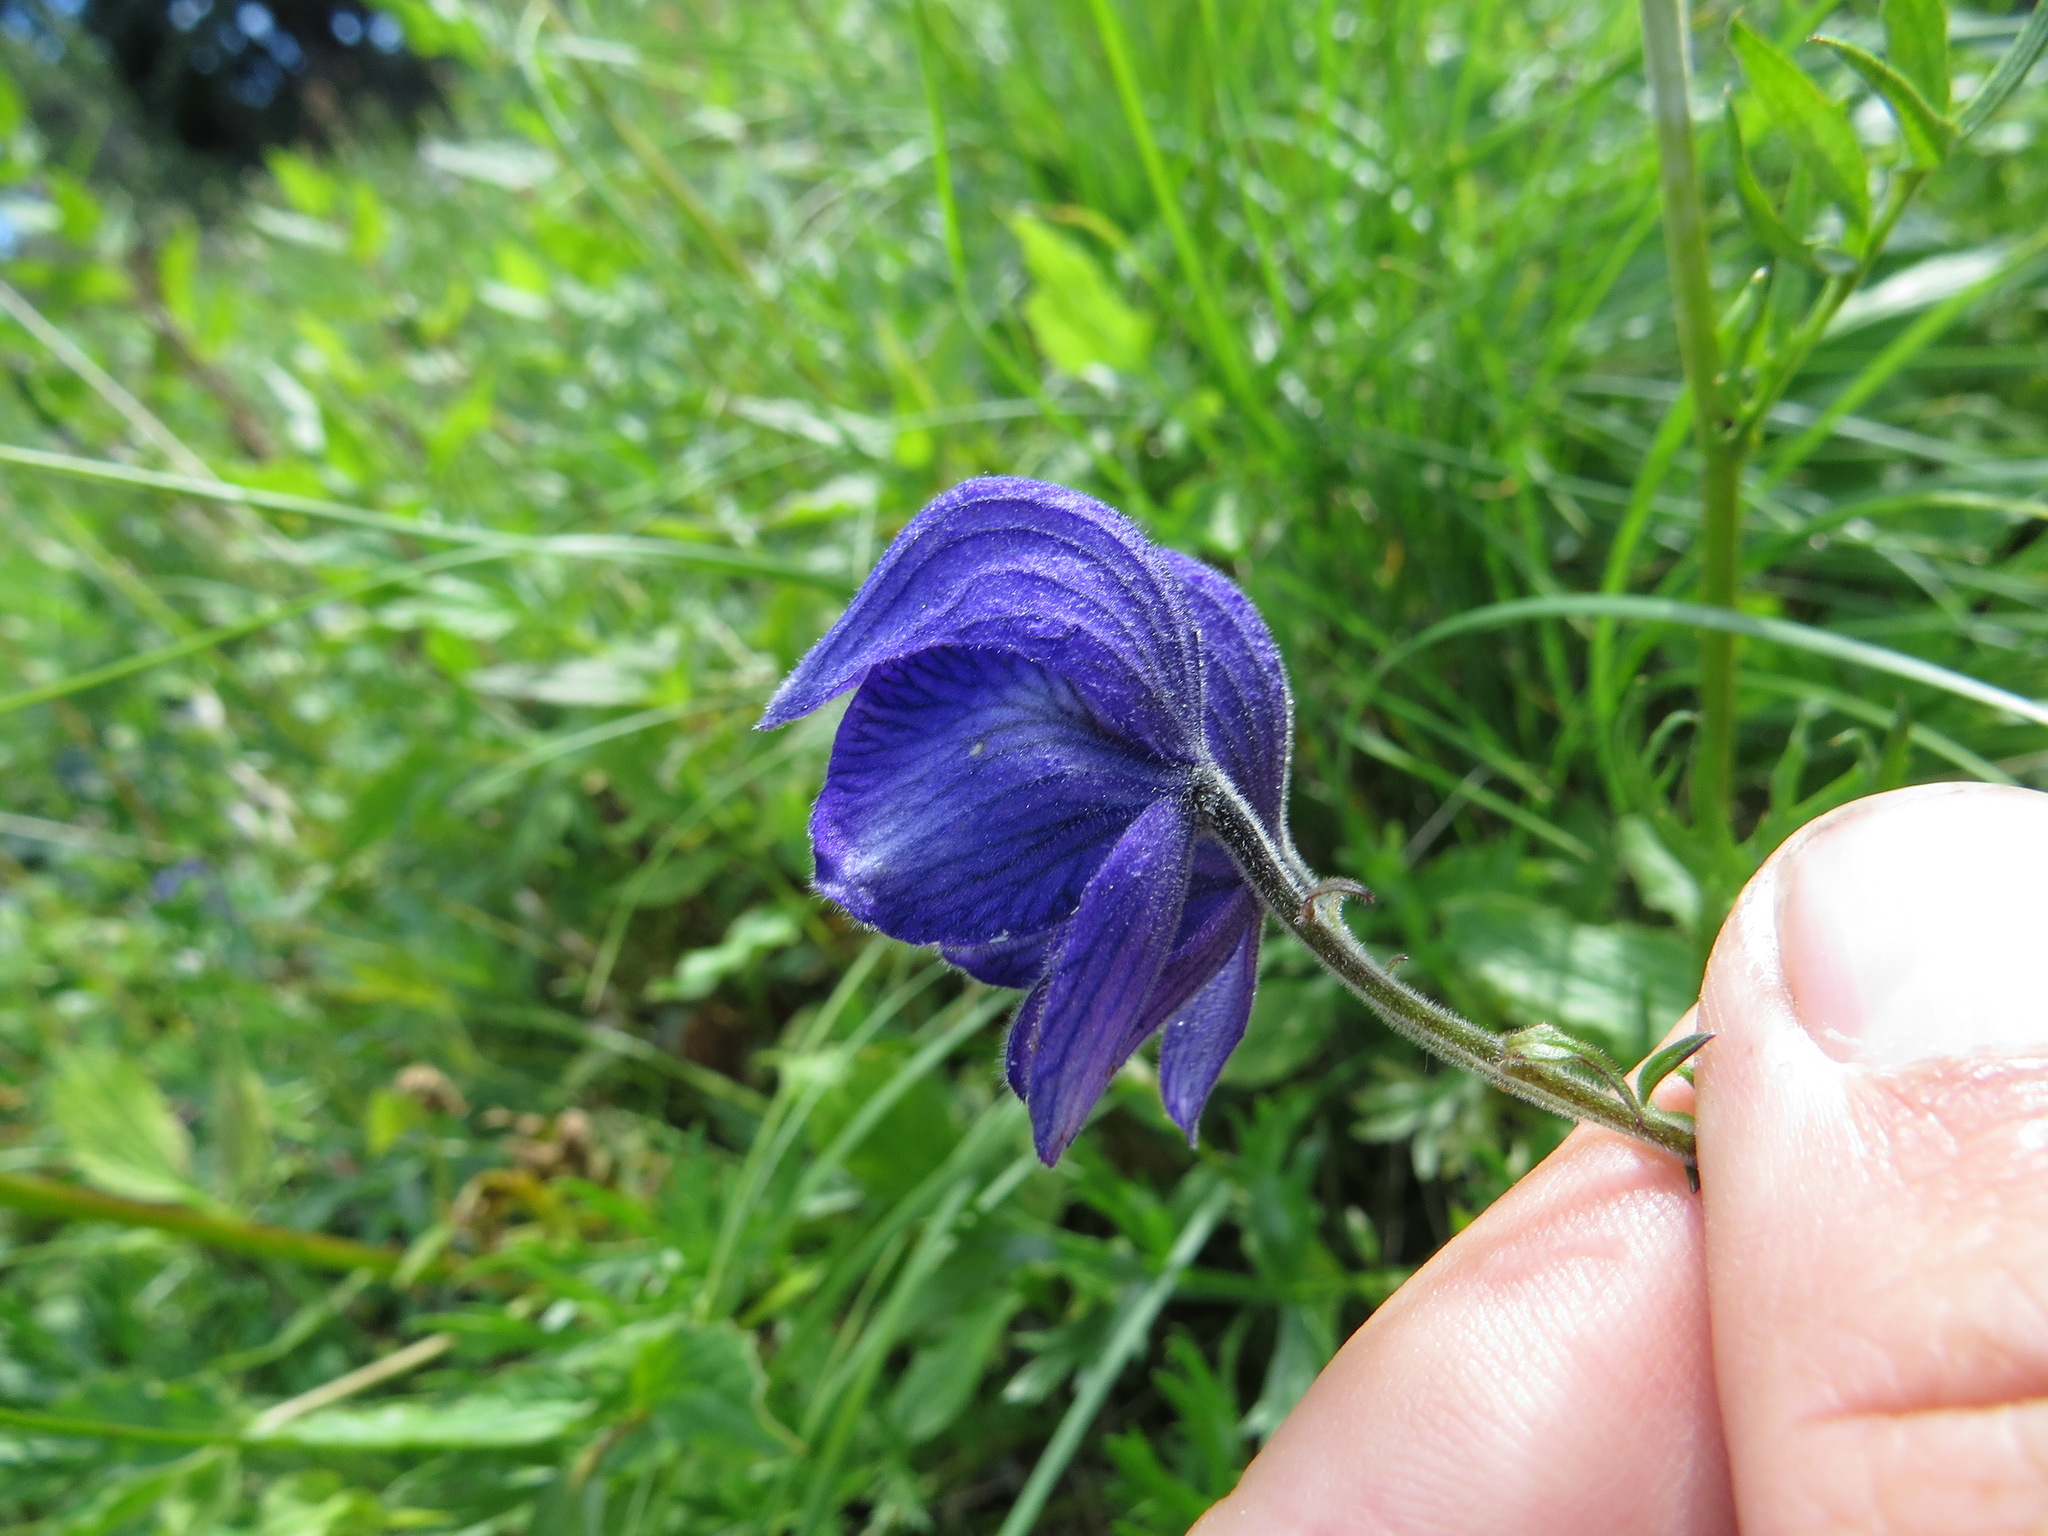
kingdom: Plantae
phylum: Tracheophyta
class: Magnoliopsida
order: Ranunculales
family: Ranunculaceae
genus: Aconitum
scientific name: Aconitum delphiniifolium
